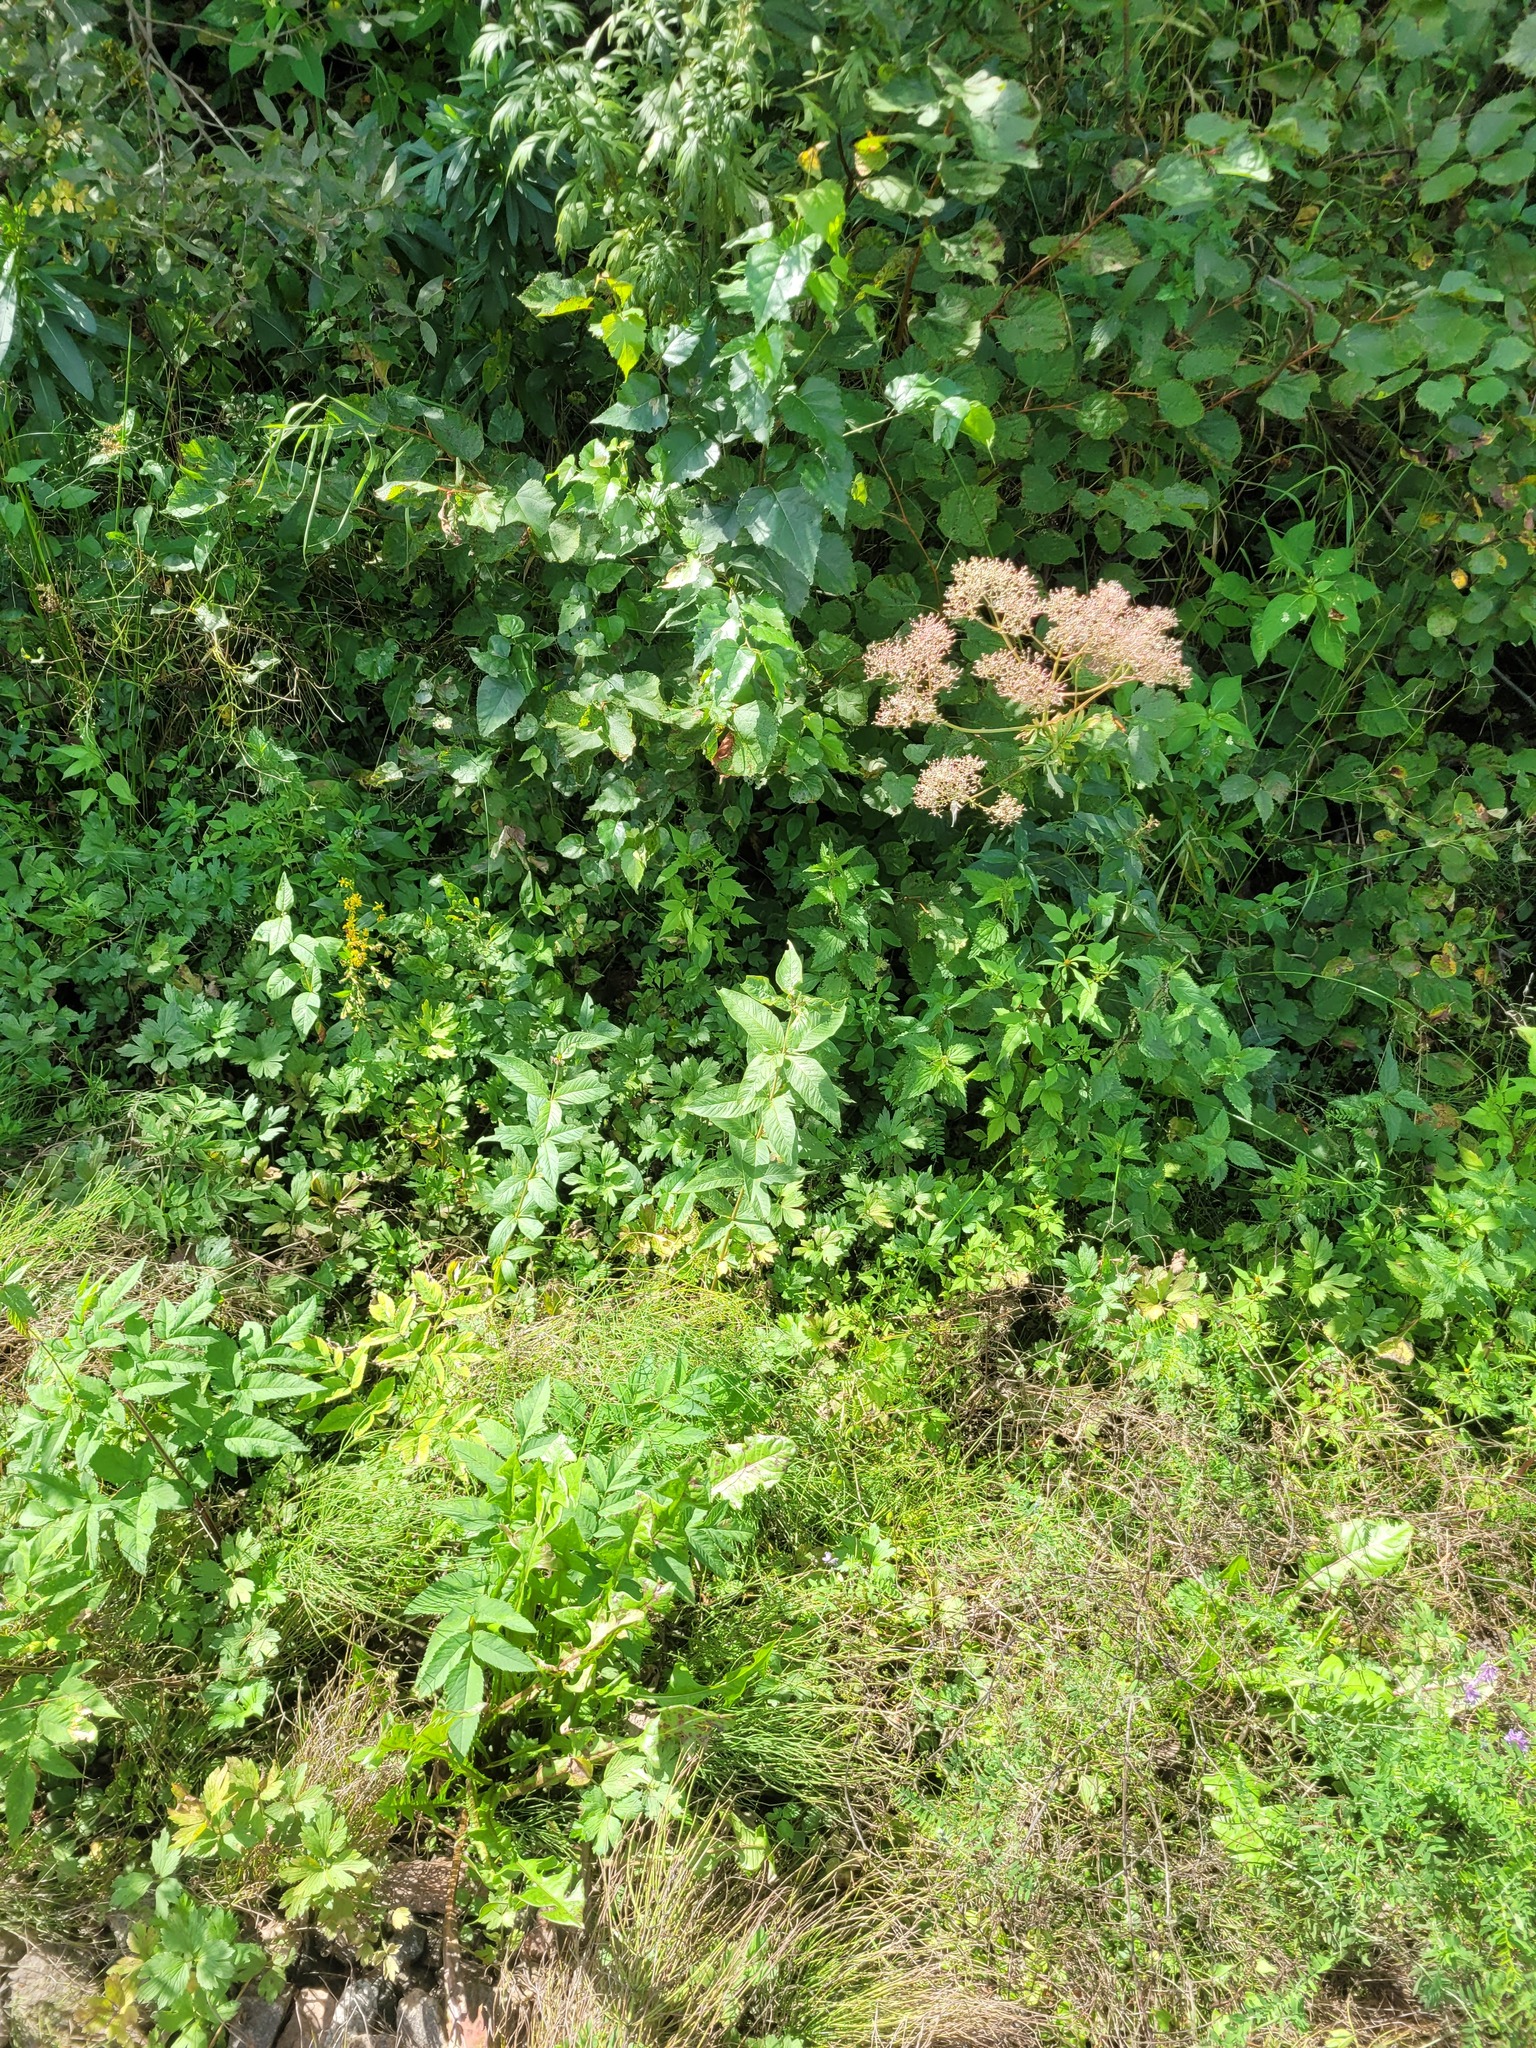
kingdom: Plantae
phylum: Tracheophyta
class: Magnoliopsida
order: Ericales
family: Primulaceae
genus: Lysimachia
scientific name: Lysimachia vulgaris
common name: Yellow loosestrife
